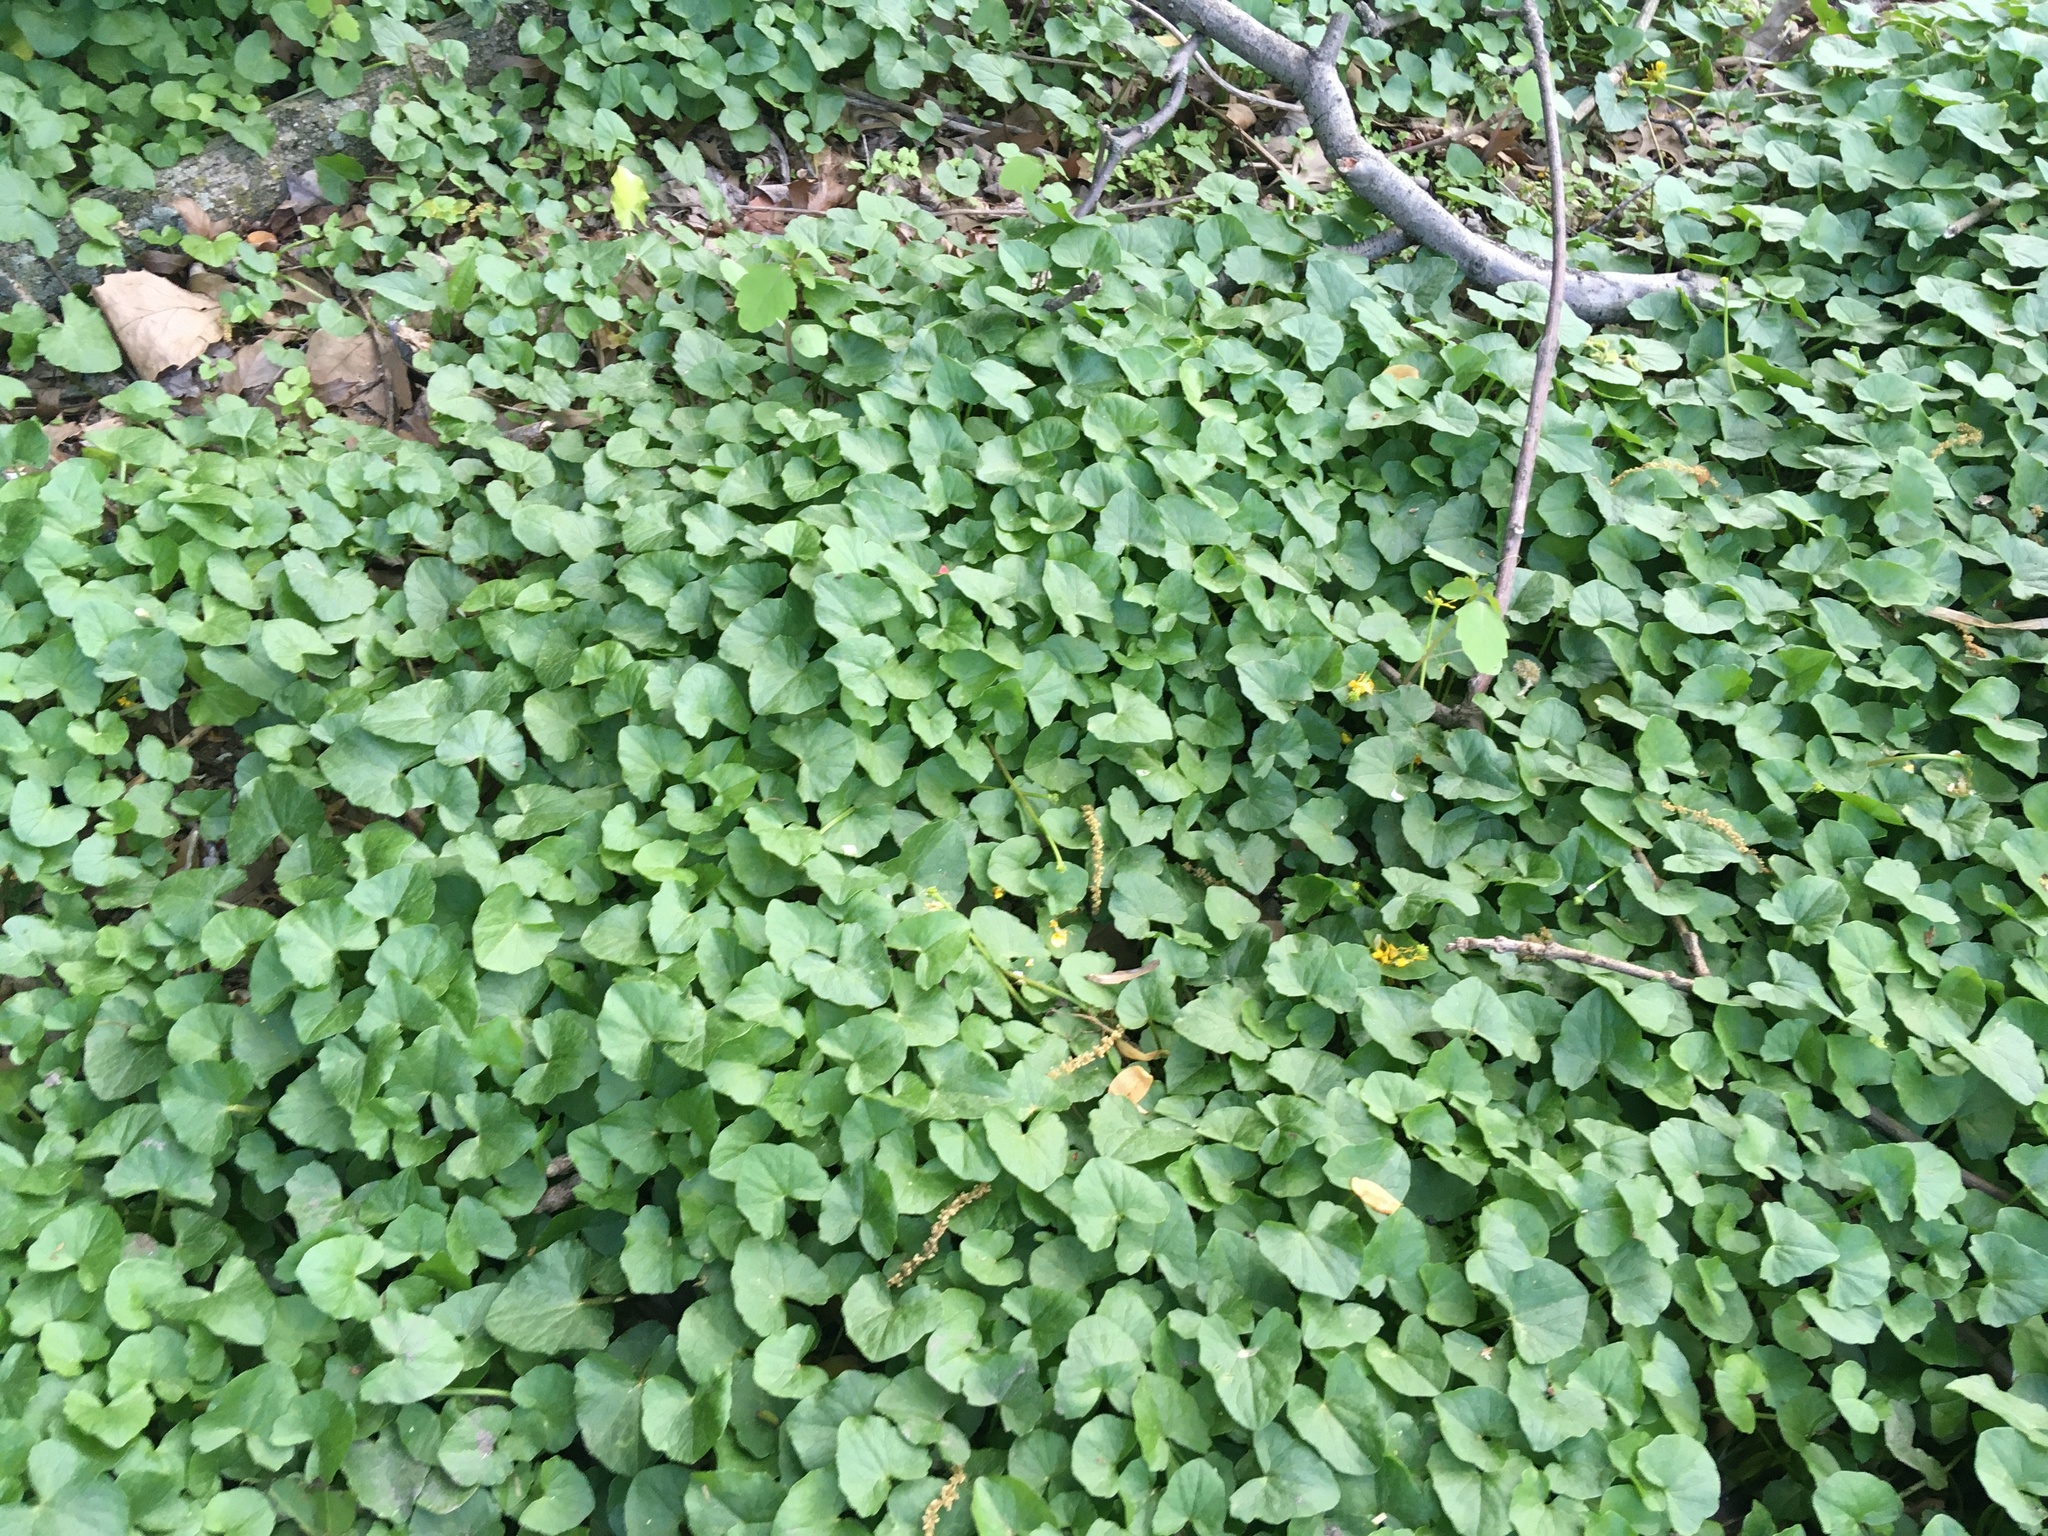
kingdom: Plantae
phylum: Tracheophyta
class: Magnoliopsida
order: Ranunculales
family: Ranunculaceae
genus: Ficaria
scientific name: Ficaria verna
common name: Lesser celandine
